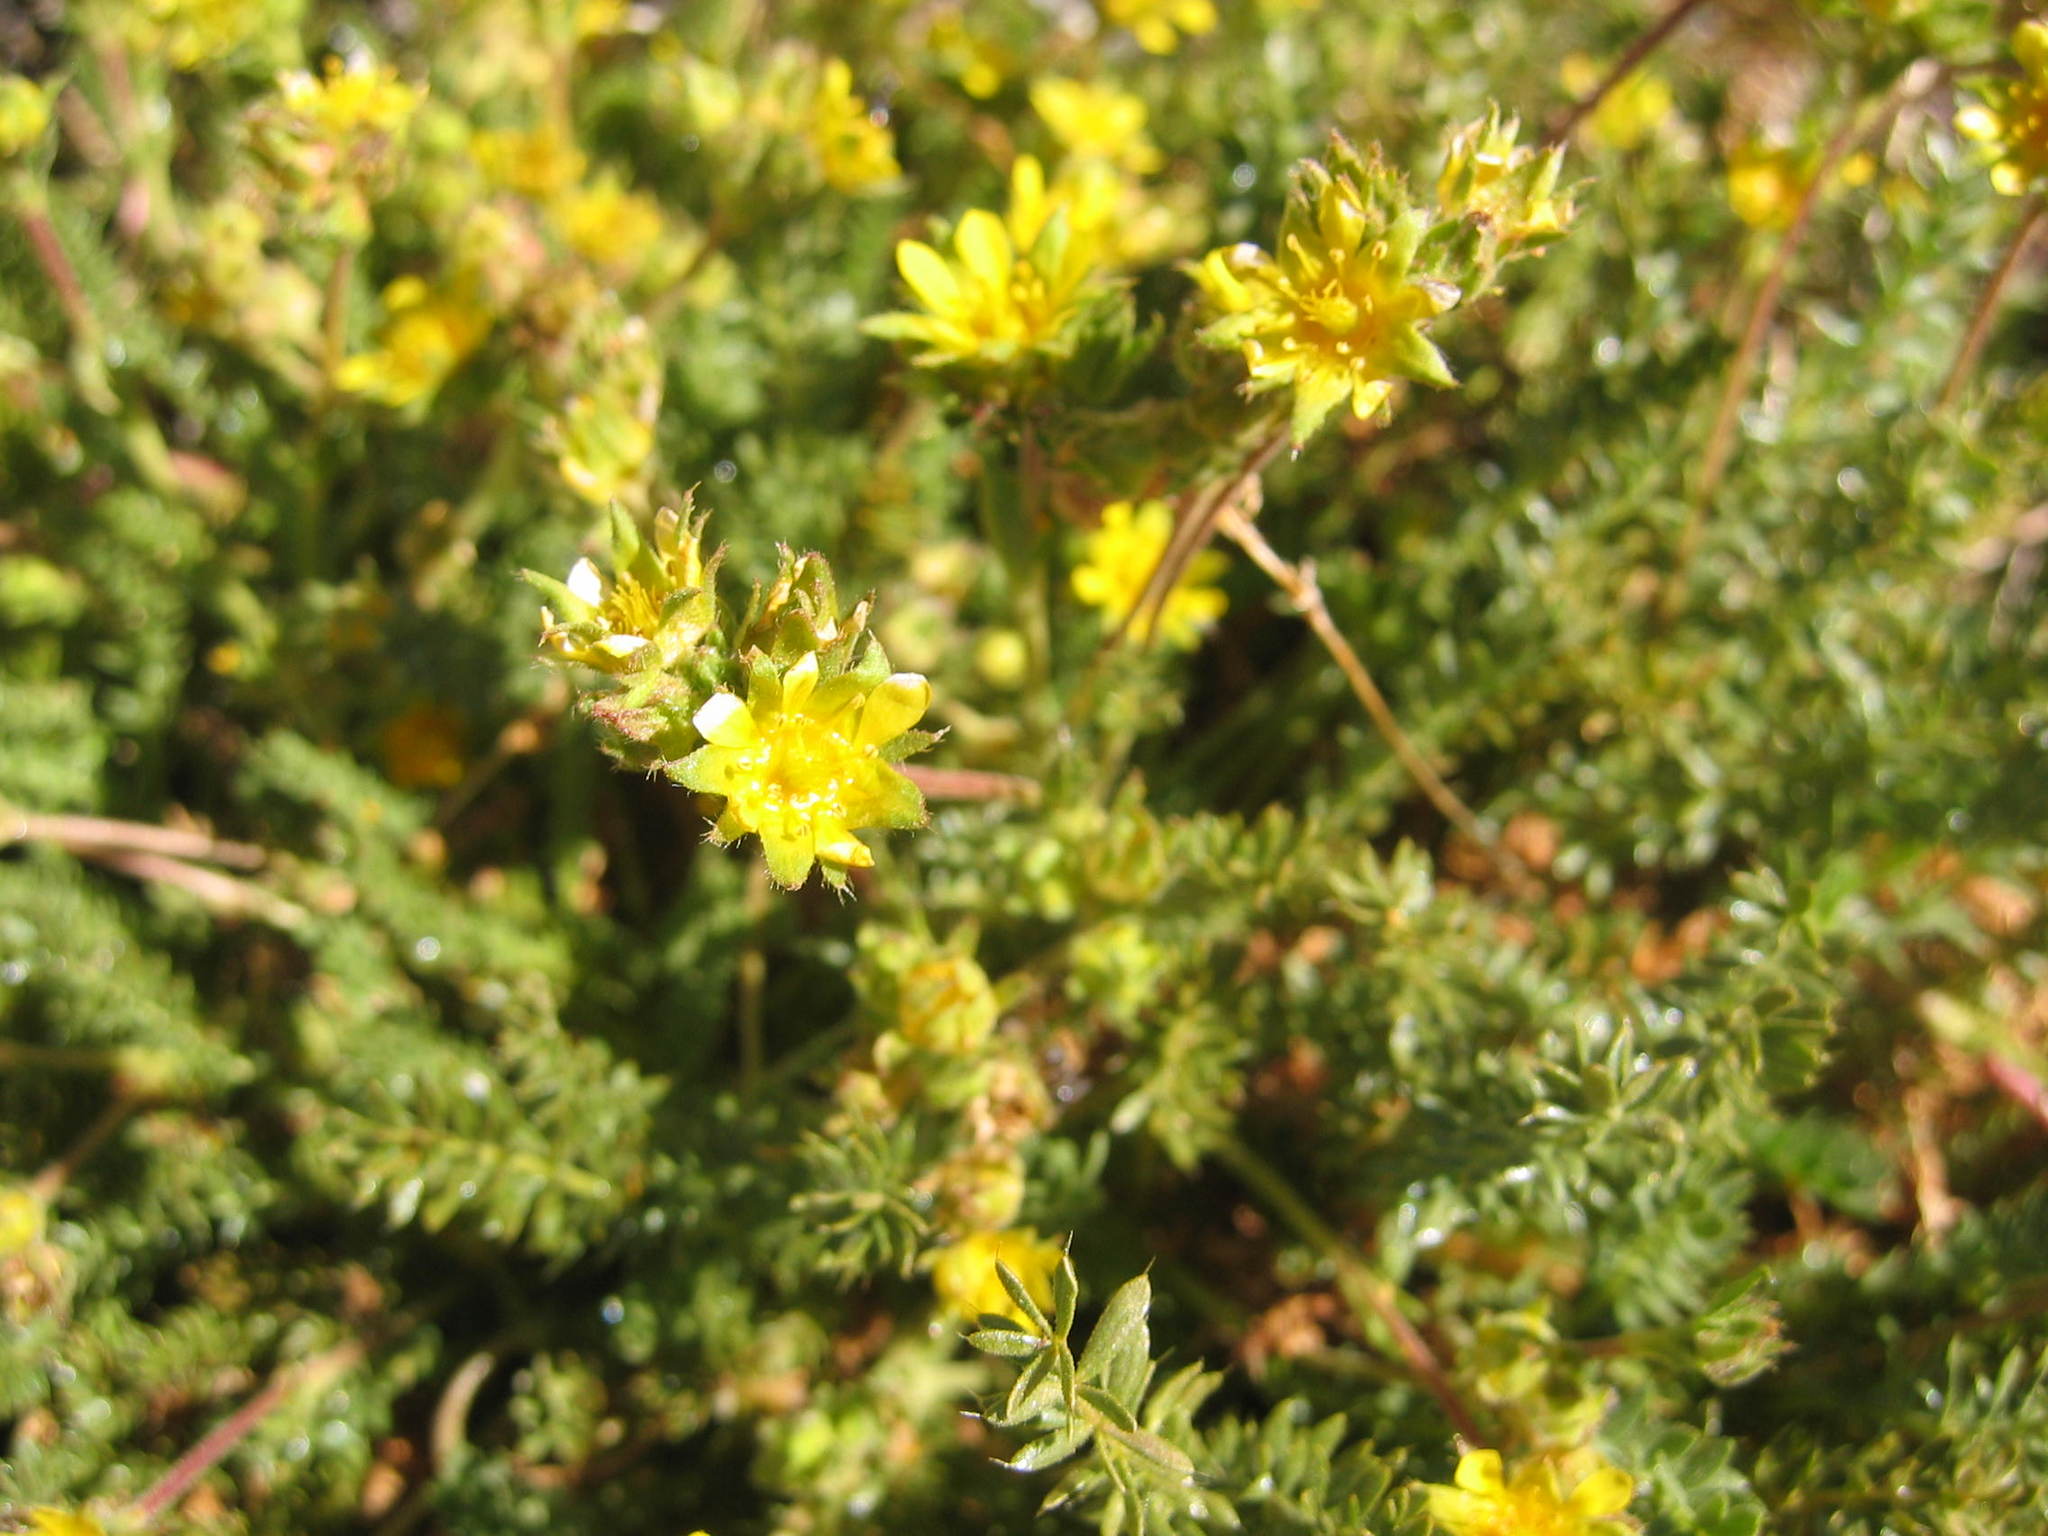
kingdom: Plantae
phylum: Tracheophyta
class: Magnoliopsida
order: Rosales
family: Rosaceae
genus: Potentilla
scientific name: Potentilla
